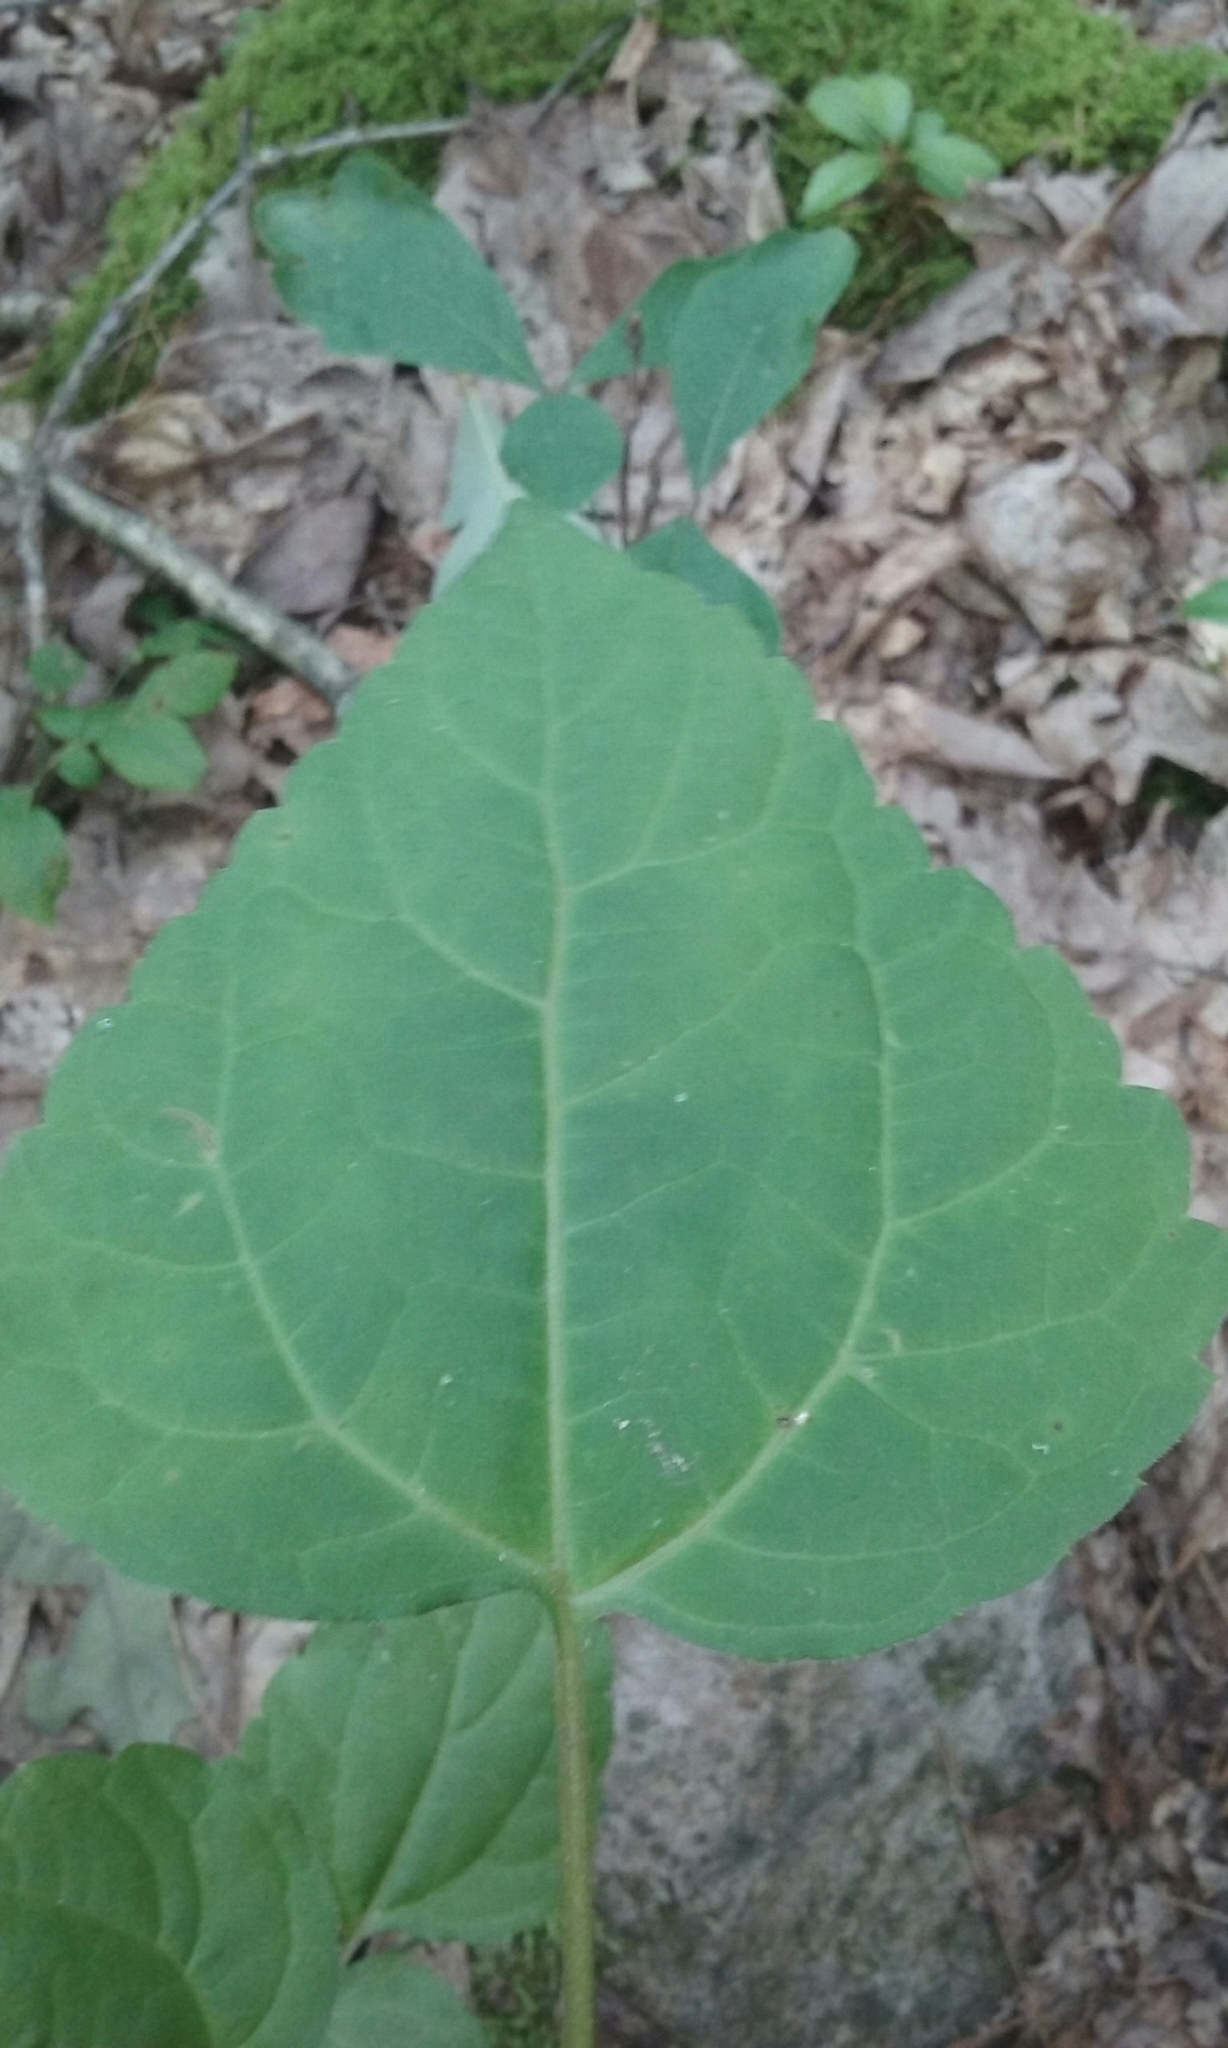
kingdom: Plantae
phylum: Tracheophyta
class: Magnoliopsida
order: Asterales
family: Asteraceae
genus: Ageratina
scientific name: Ageratina altissima
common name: White snakeroot
